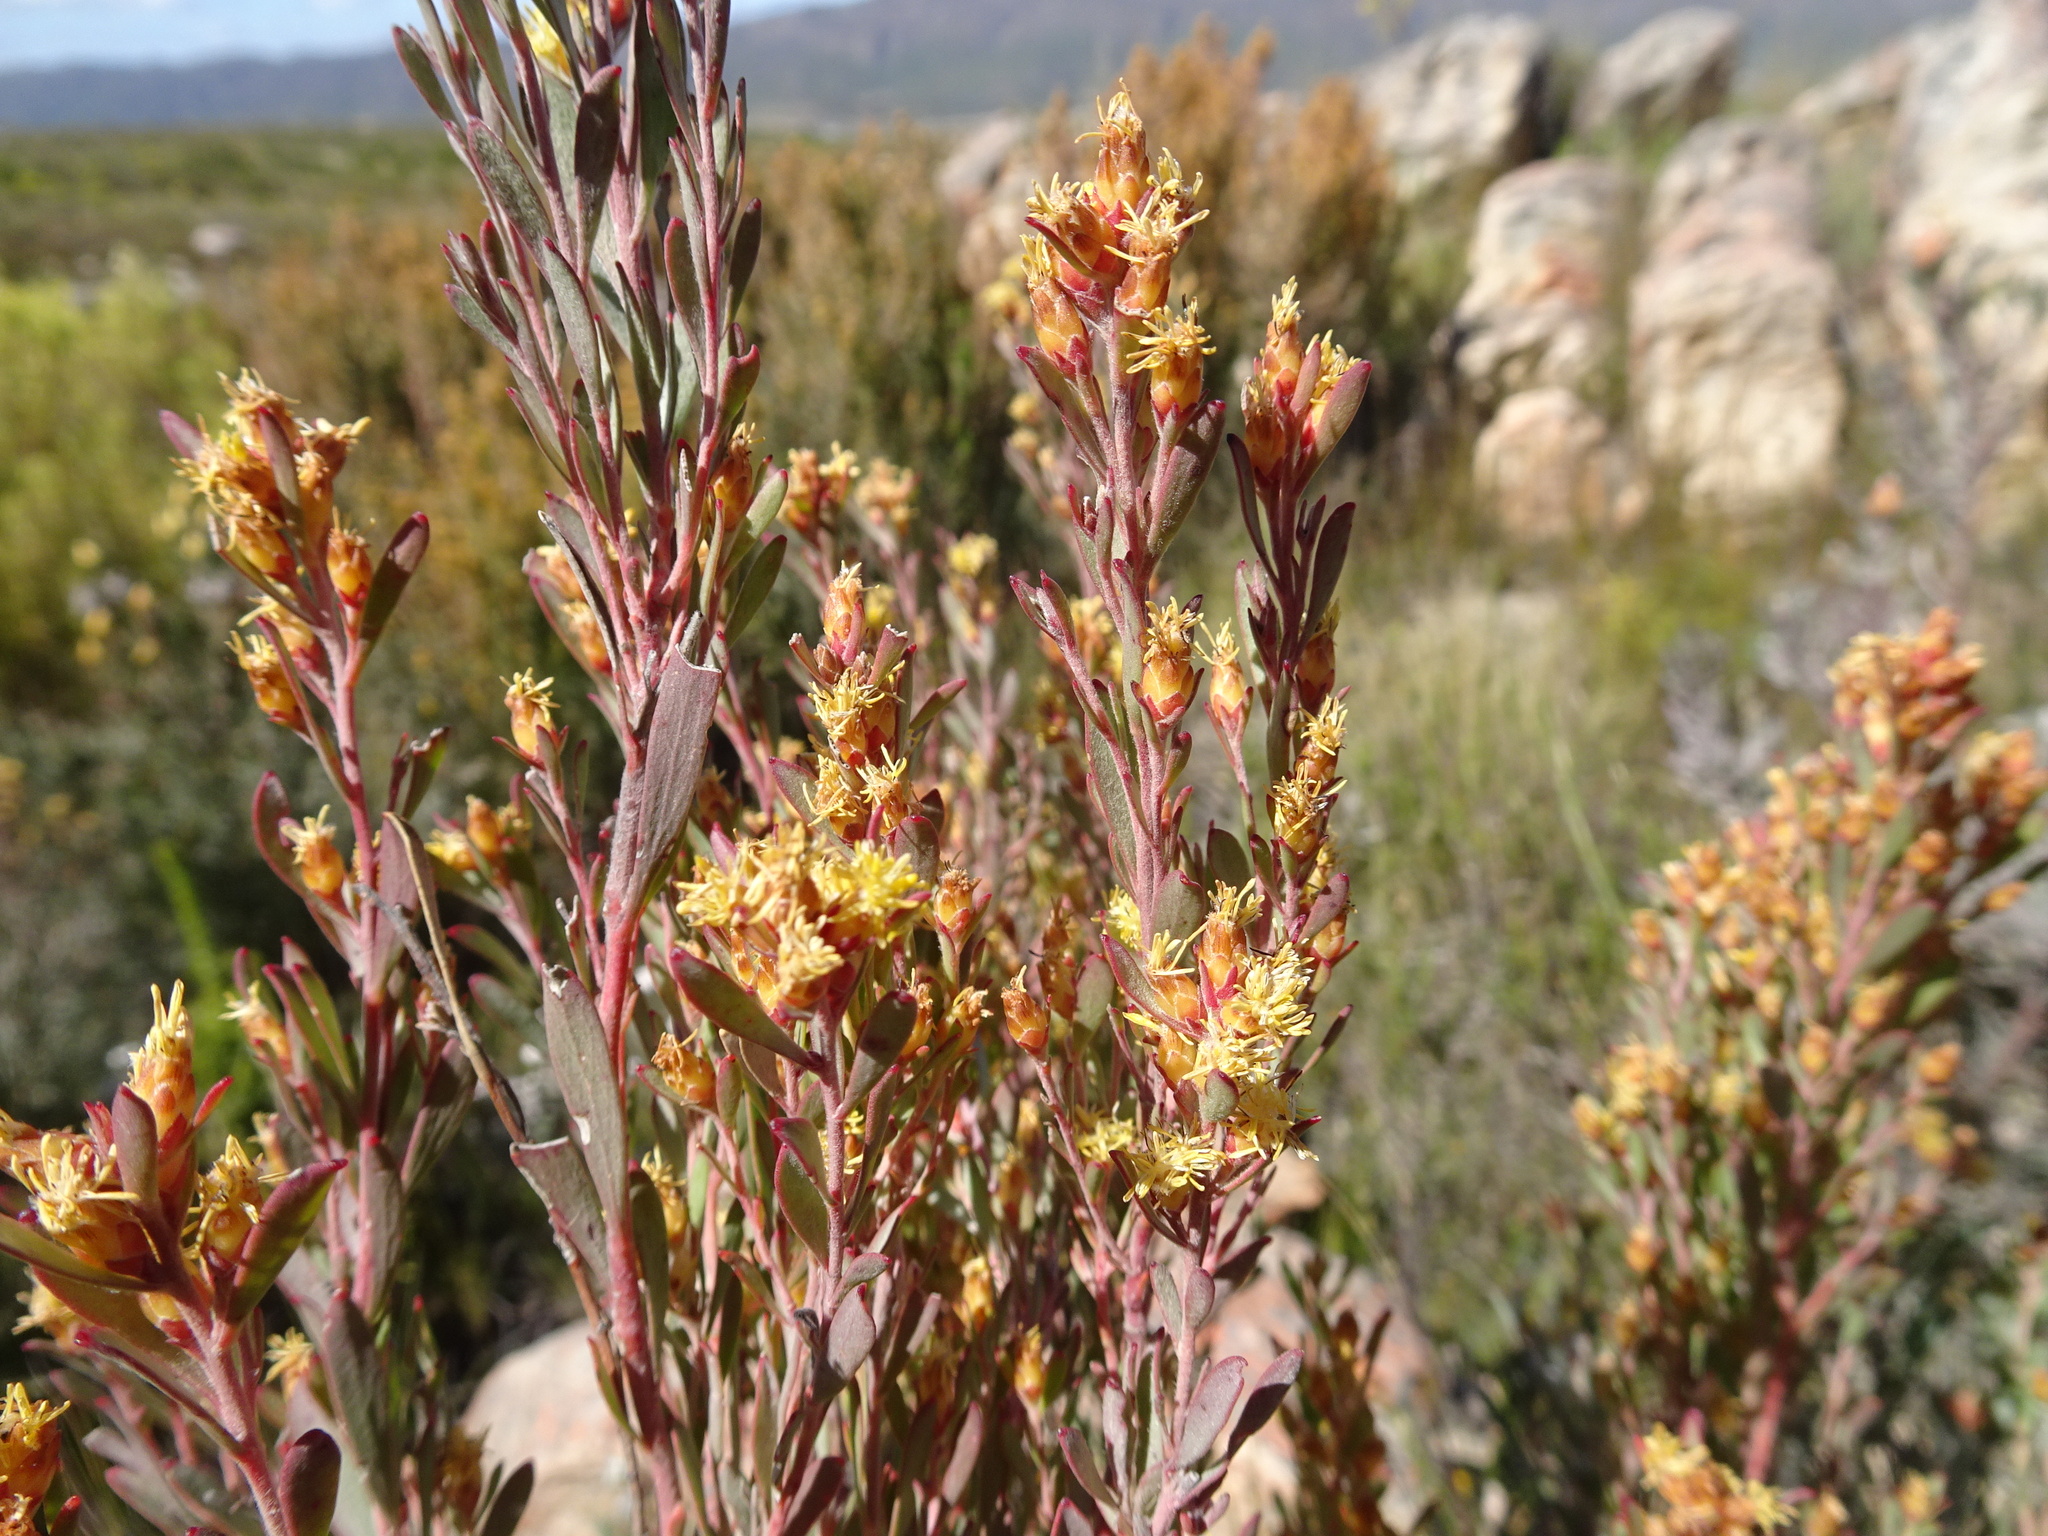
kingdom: Plantae
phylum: Tracheophyta
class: Magnoliopsida
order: Proteales
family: Proteaceae
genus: Leucadendron
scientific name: Leucadendron rubrum
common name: Spinning top
